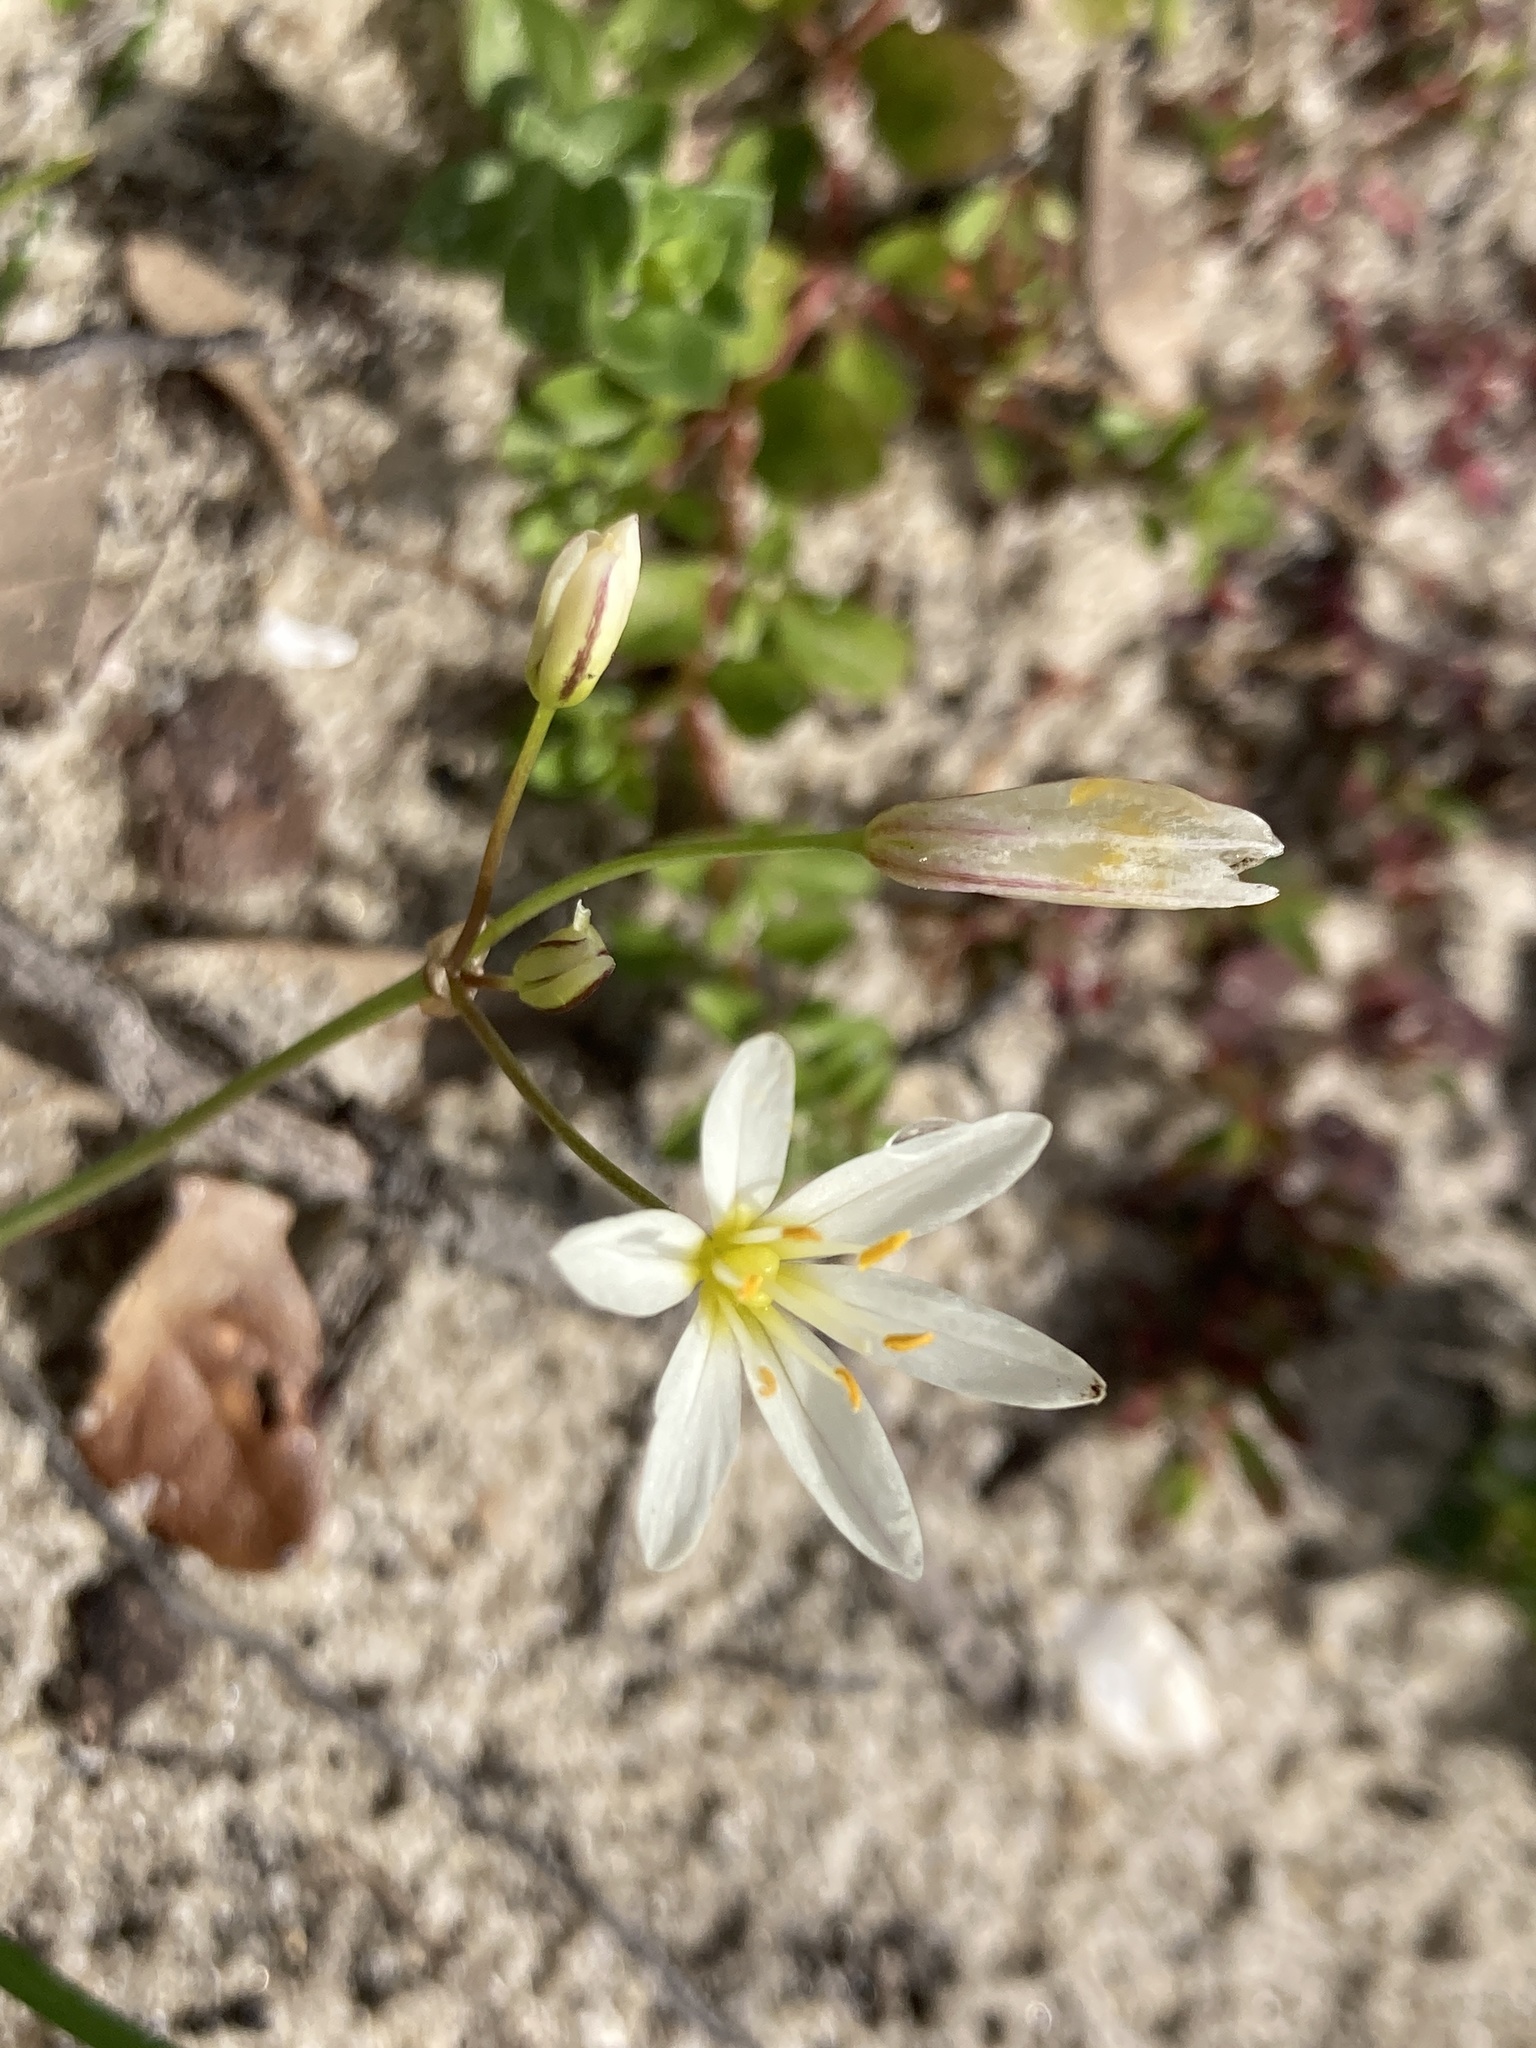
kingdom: Plantae
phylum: Tracheophyta
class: Liliopsida
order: Asparagales
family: Amaryllidaceae
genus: Nothoscordum
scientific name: Nothoscordum bivalve
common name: Crow-poison
